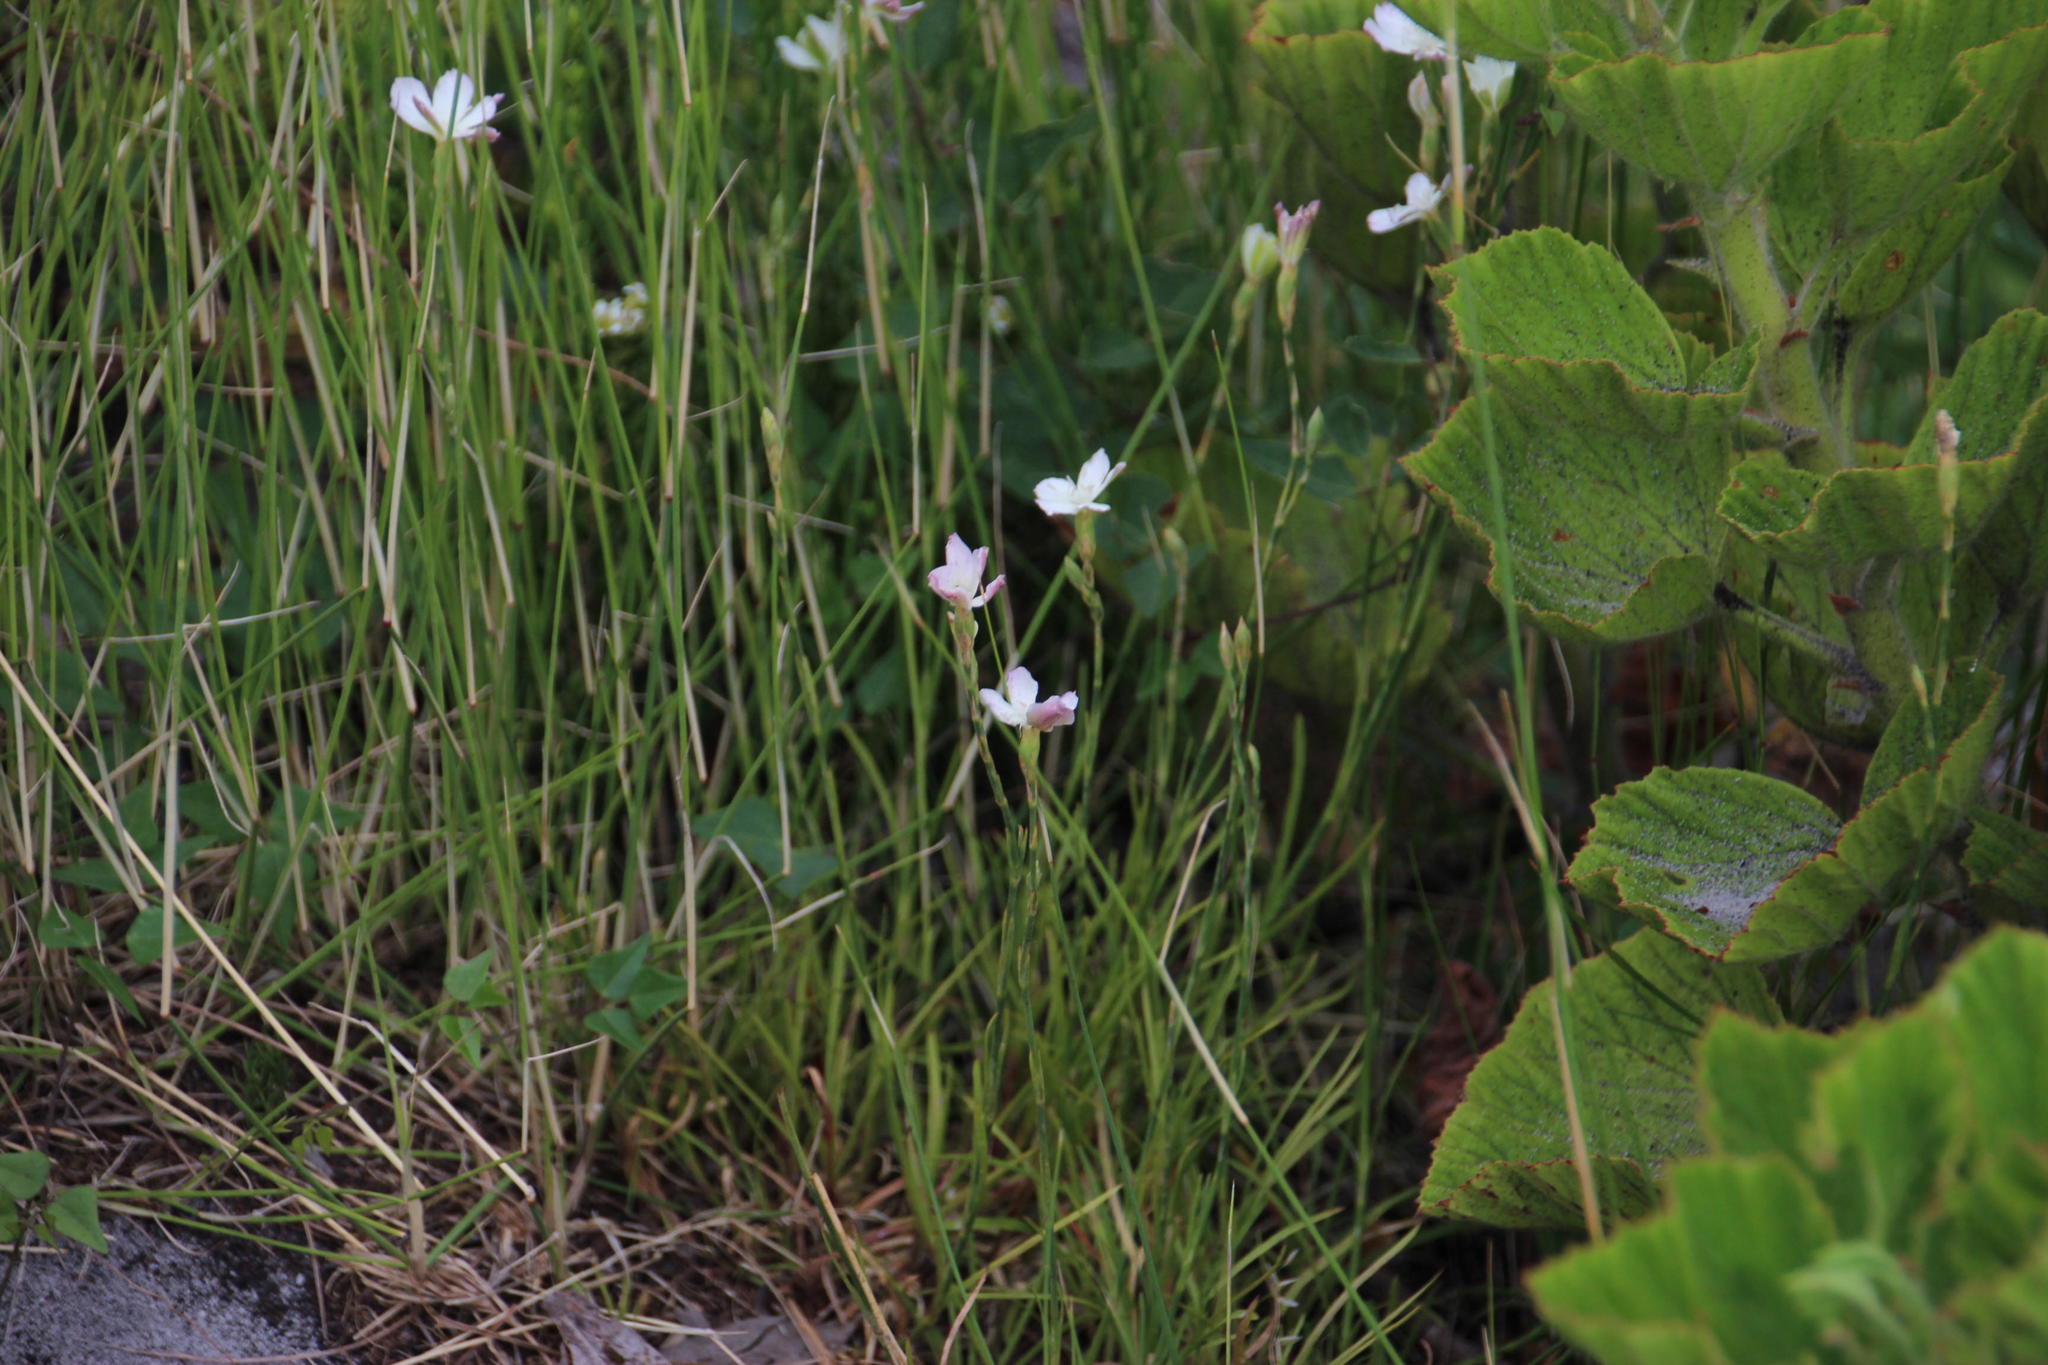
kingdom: Plantae
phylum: Tracheophyta
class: Magnoliopsida
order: Caryophyllales
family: Caryophyllaceae
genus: Dianthus
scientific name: Dianthus albens
